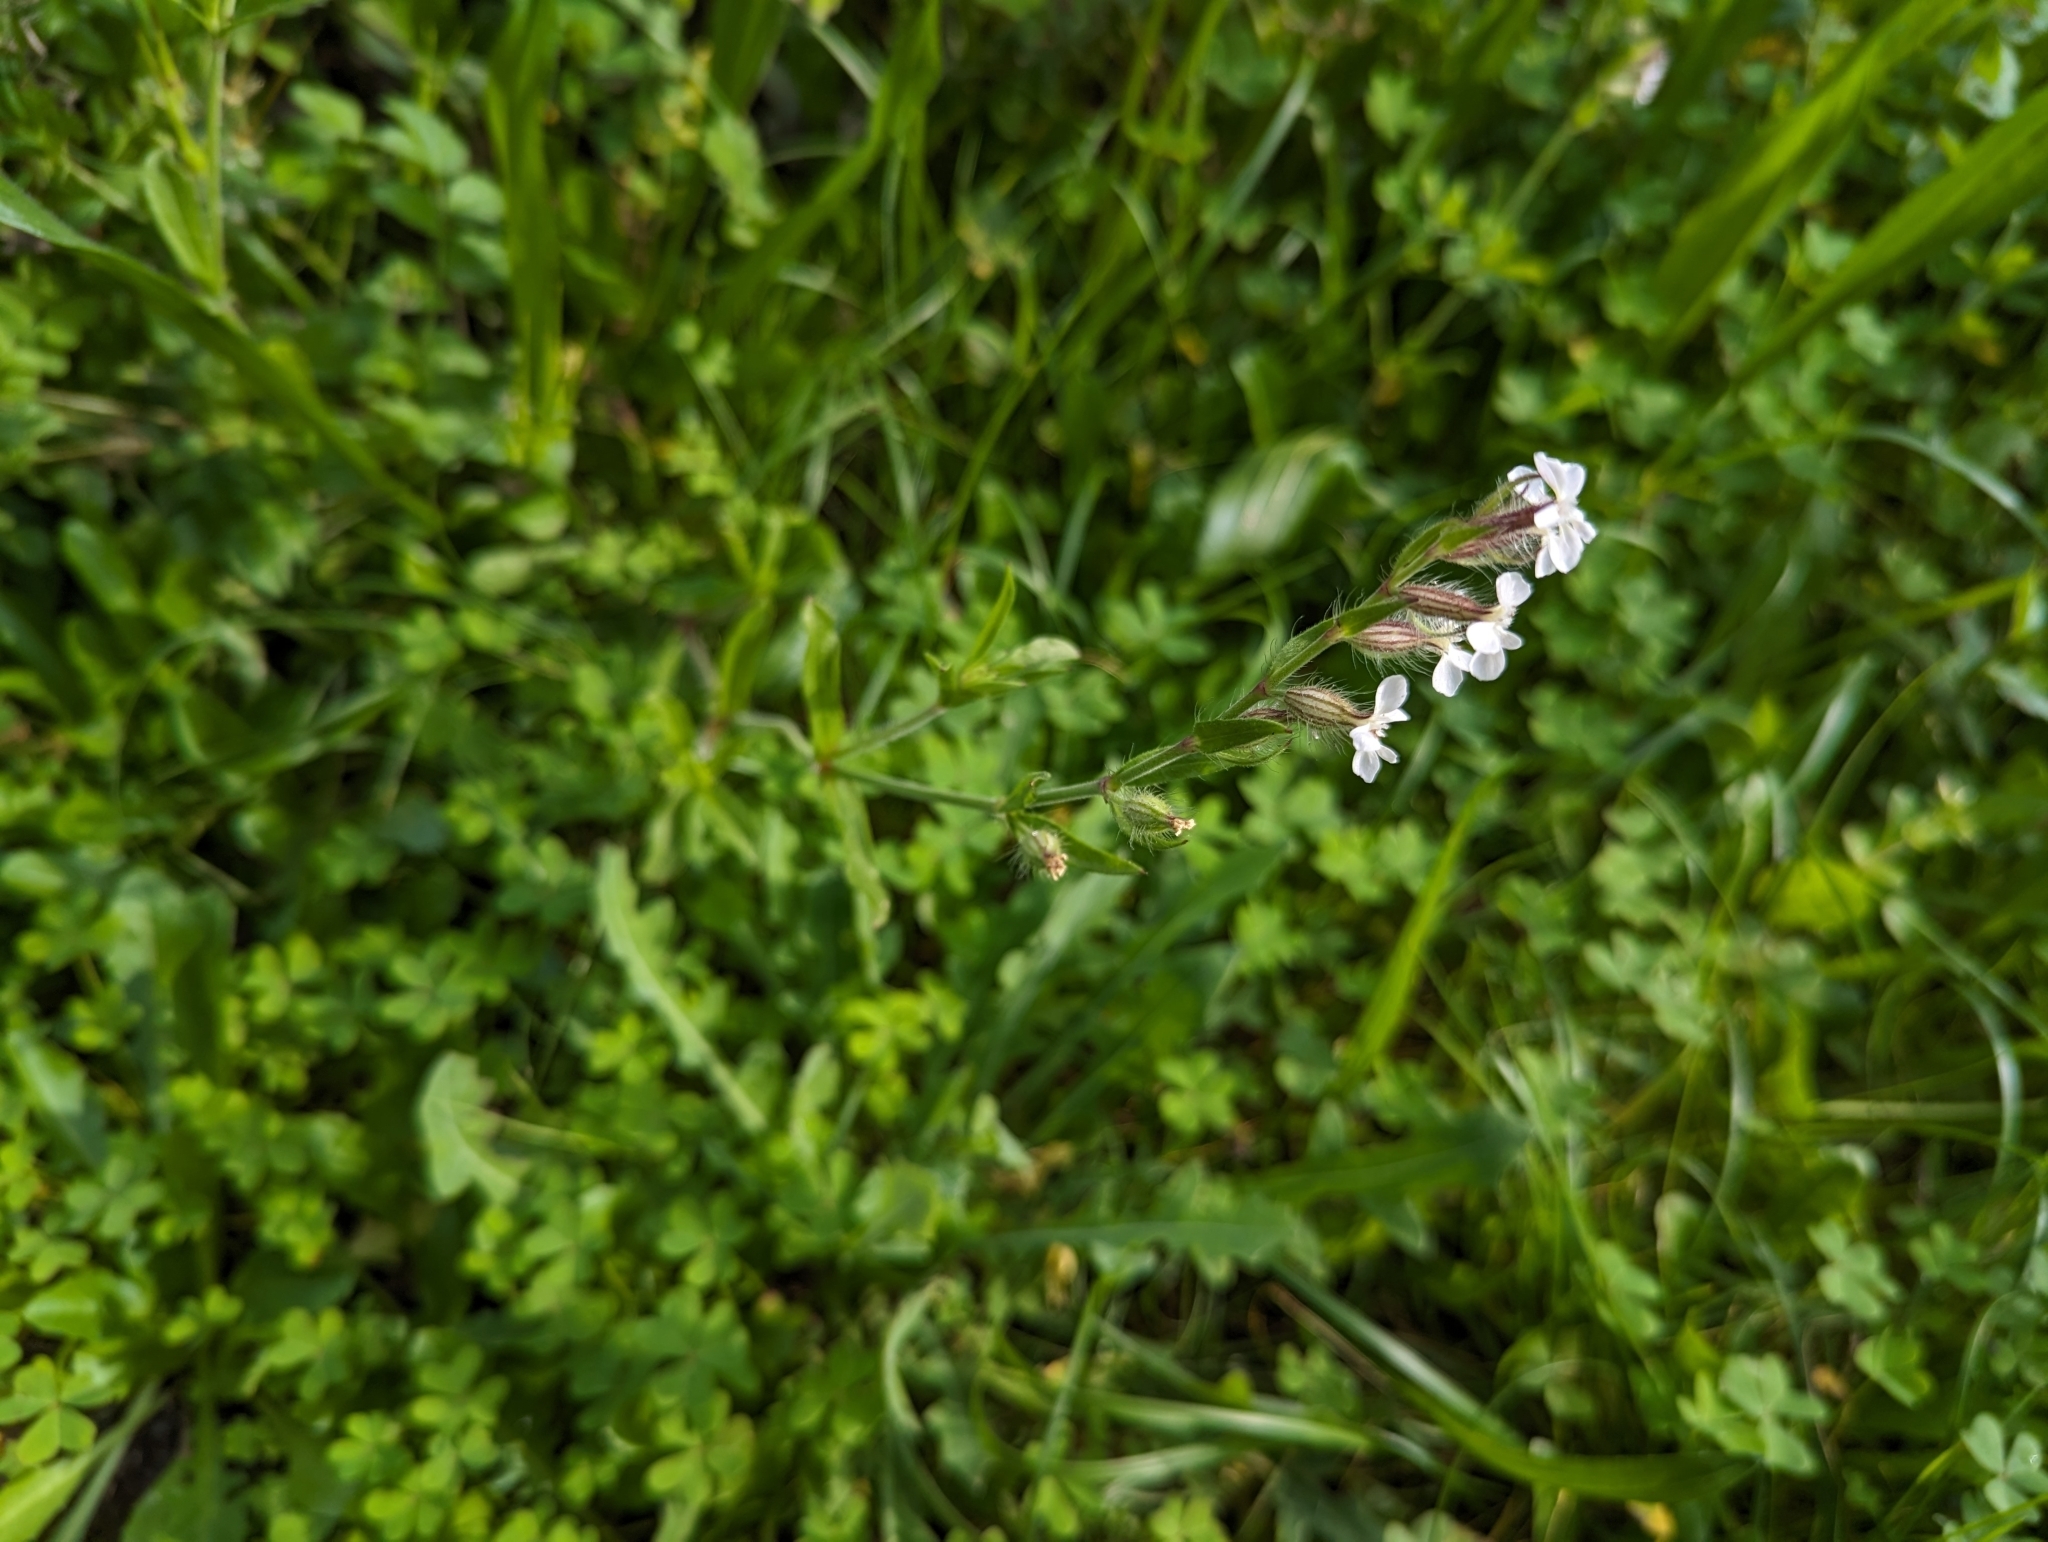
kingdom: Plantae
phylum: Tracheophyta
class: Magnoliopsida
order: Caryophyllales
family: Caryophyllaceae
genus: Silene
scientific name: Silene gallica
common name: Small-flowered catchfly
